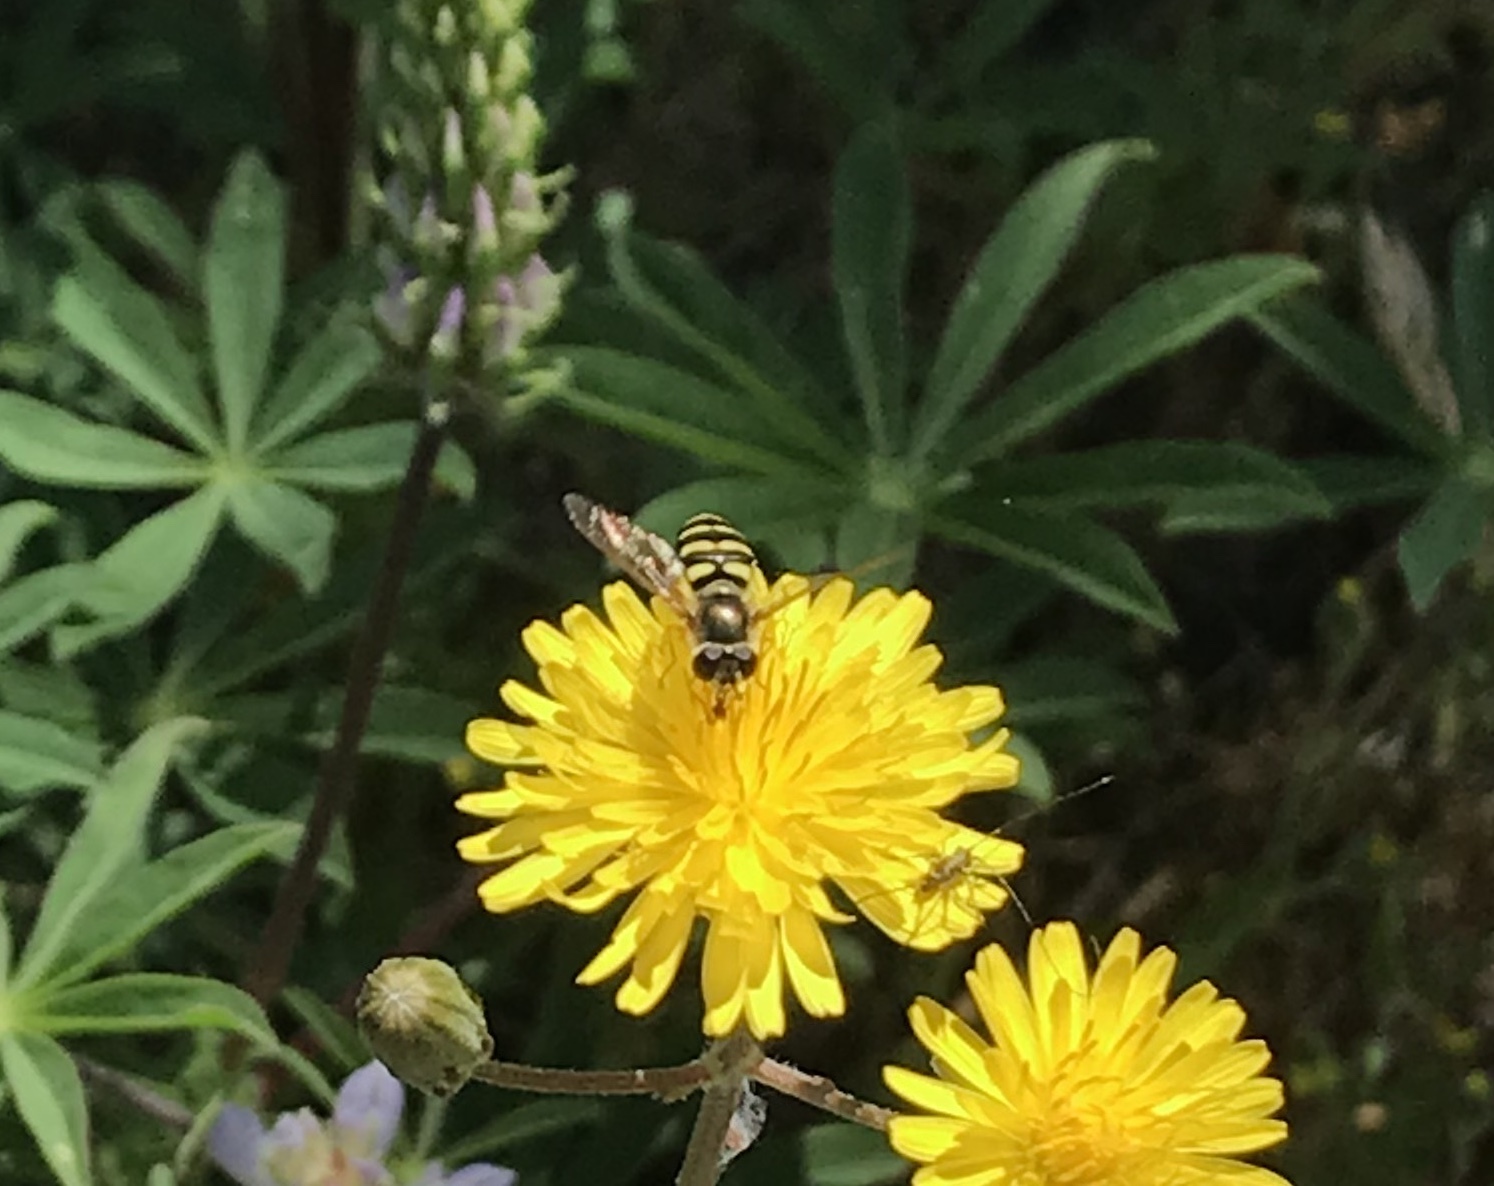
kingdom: Animalia
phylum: Arthropoda
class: Insecta
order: Diptera
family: Syrphidae
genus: Eupeodes
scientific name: Eupeodes fumipennis
